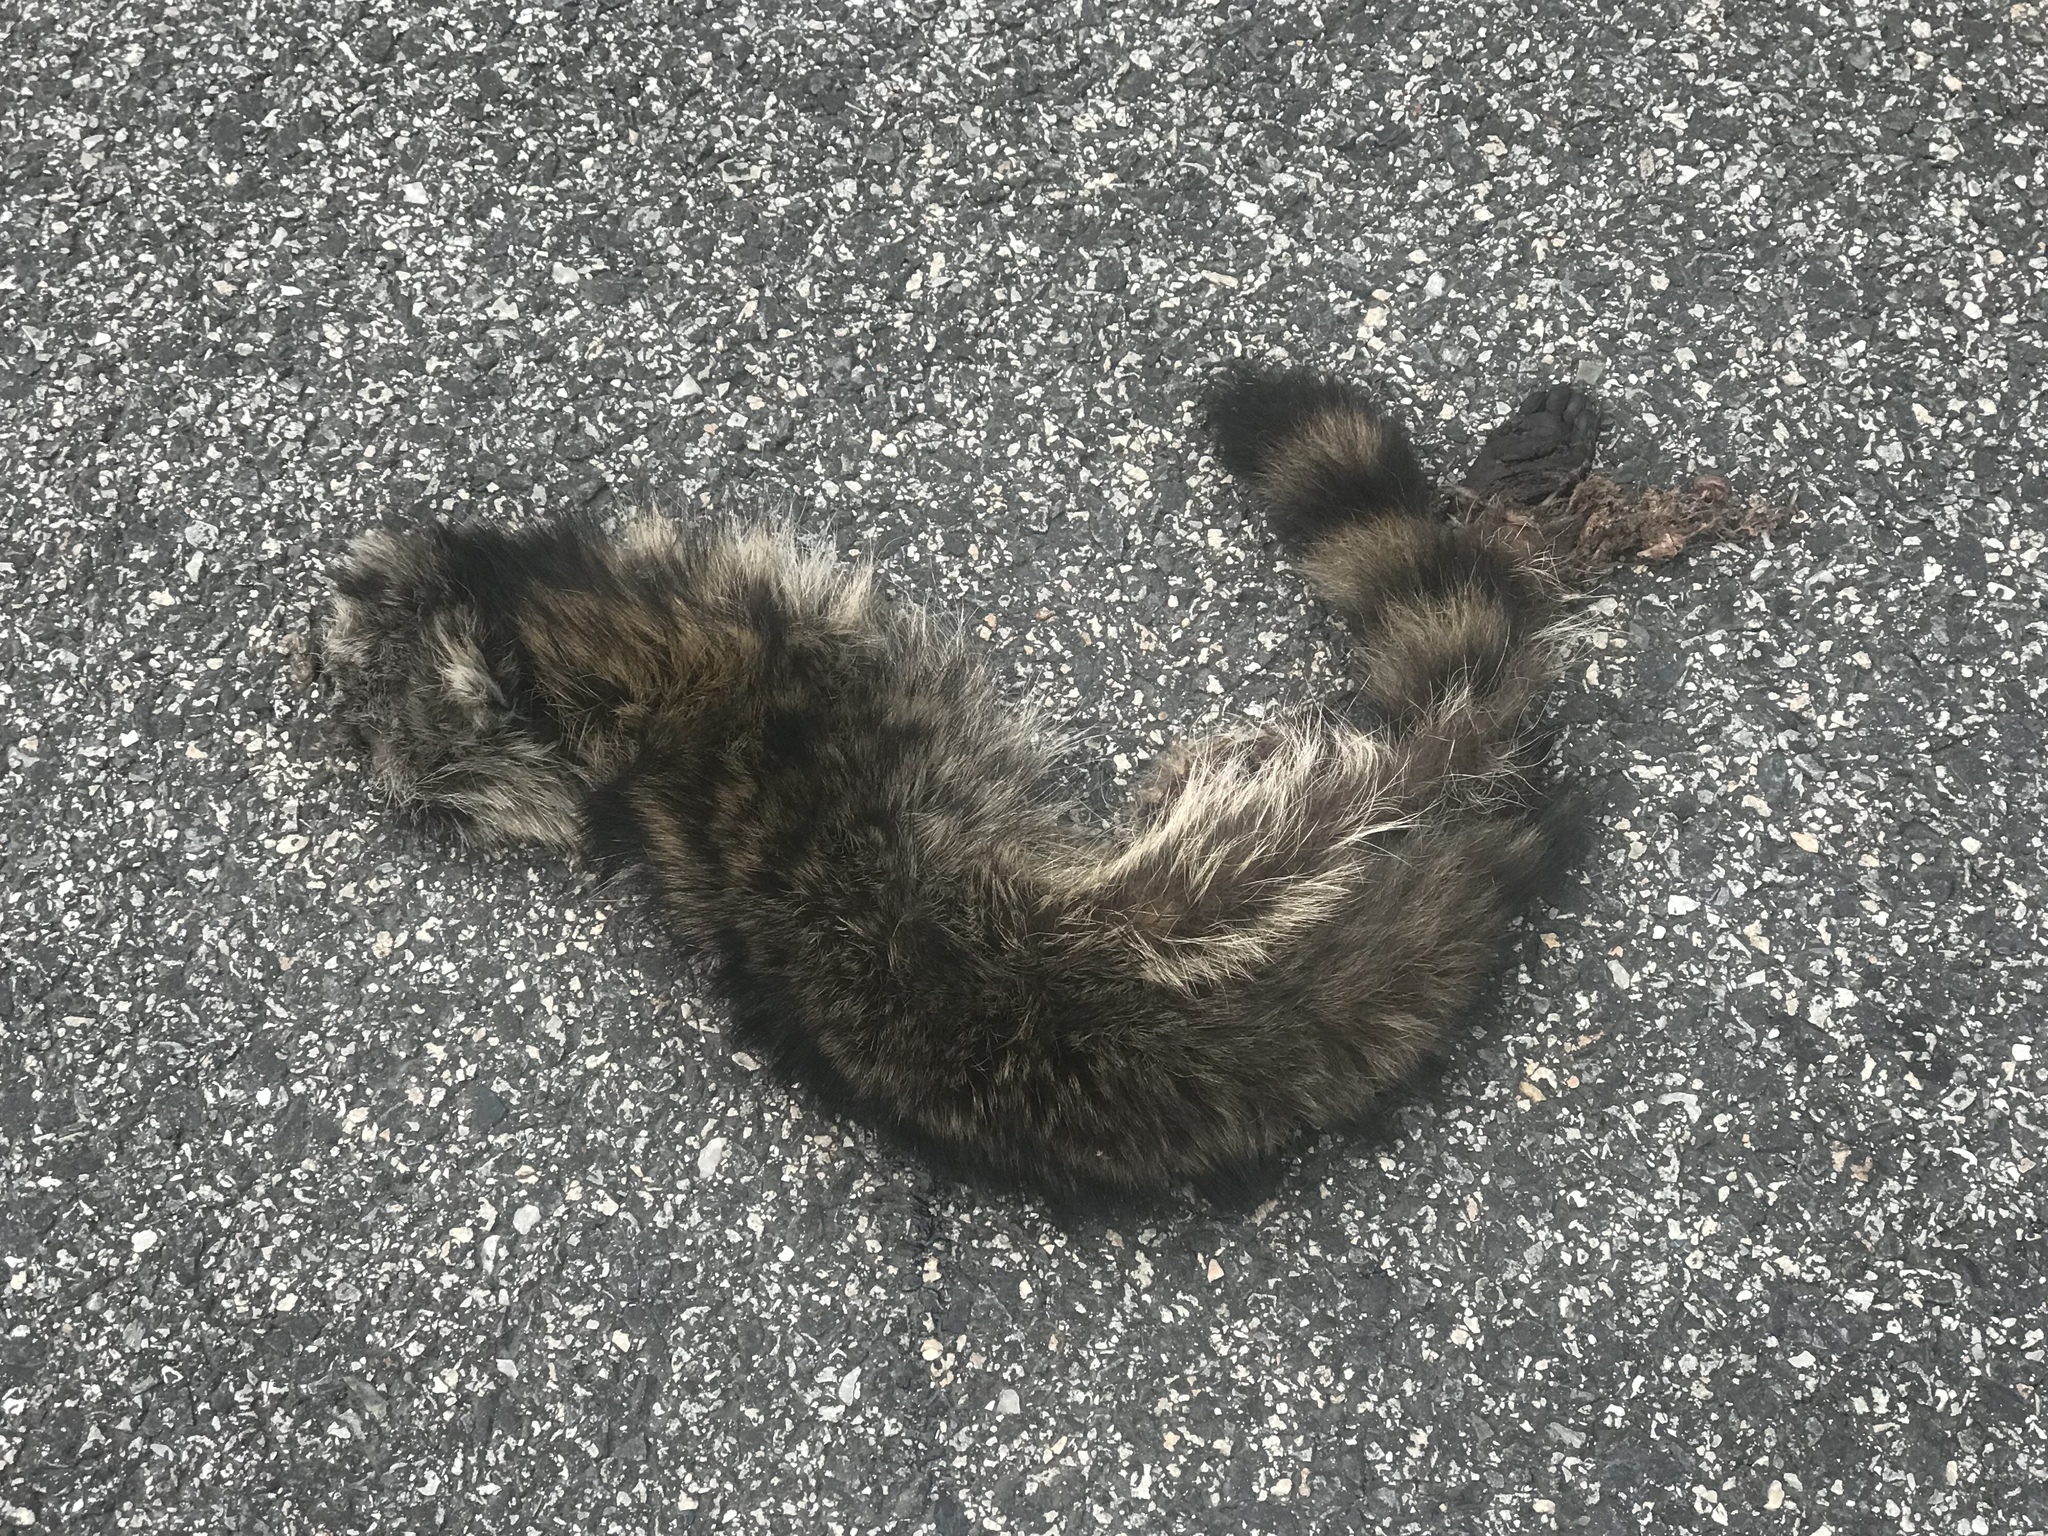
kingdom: Animalia
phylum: Chordata
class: Mammalia
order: Carnivora
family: Procyonidae
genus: Procyon
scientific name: Procyon lotor
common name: Raccoon
